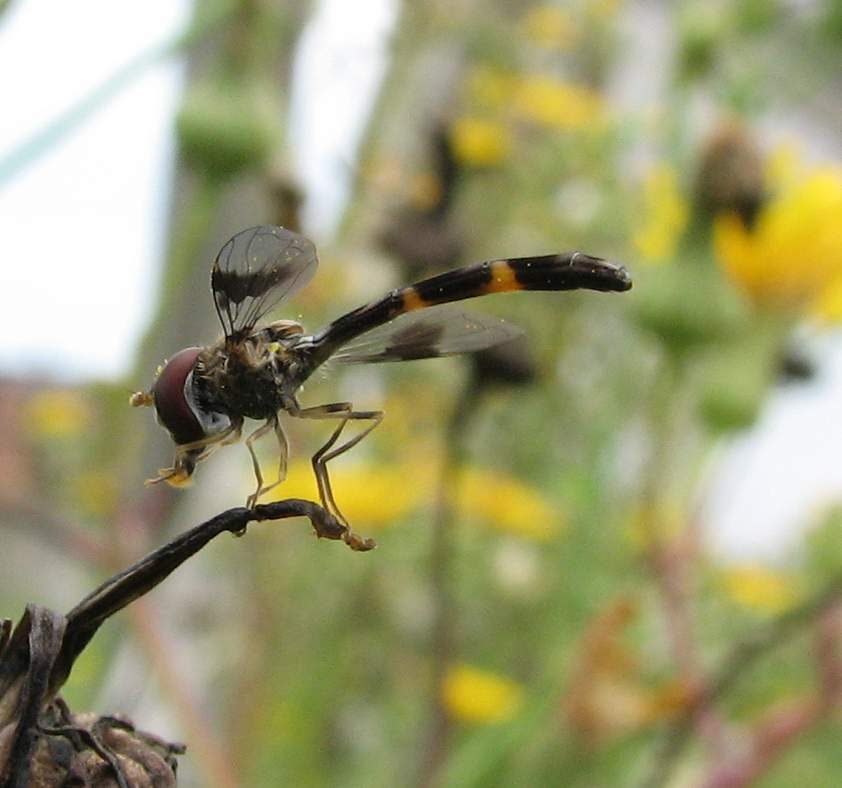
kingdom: Animalia
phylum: Arthropoda
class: Insecta
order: Diptera
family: Syrphidae
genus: Hypocritanus
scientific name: Hypocritanus fascipennis
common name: Eastern band-winged hover fly
